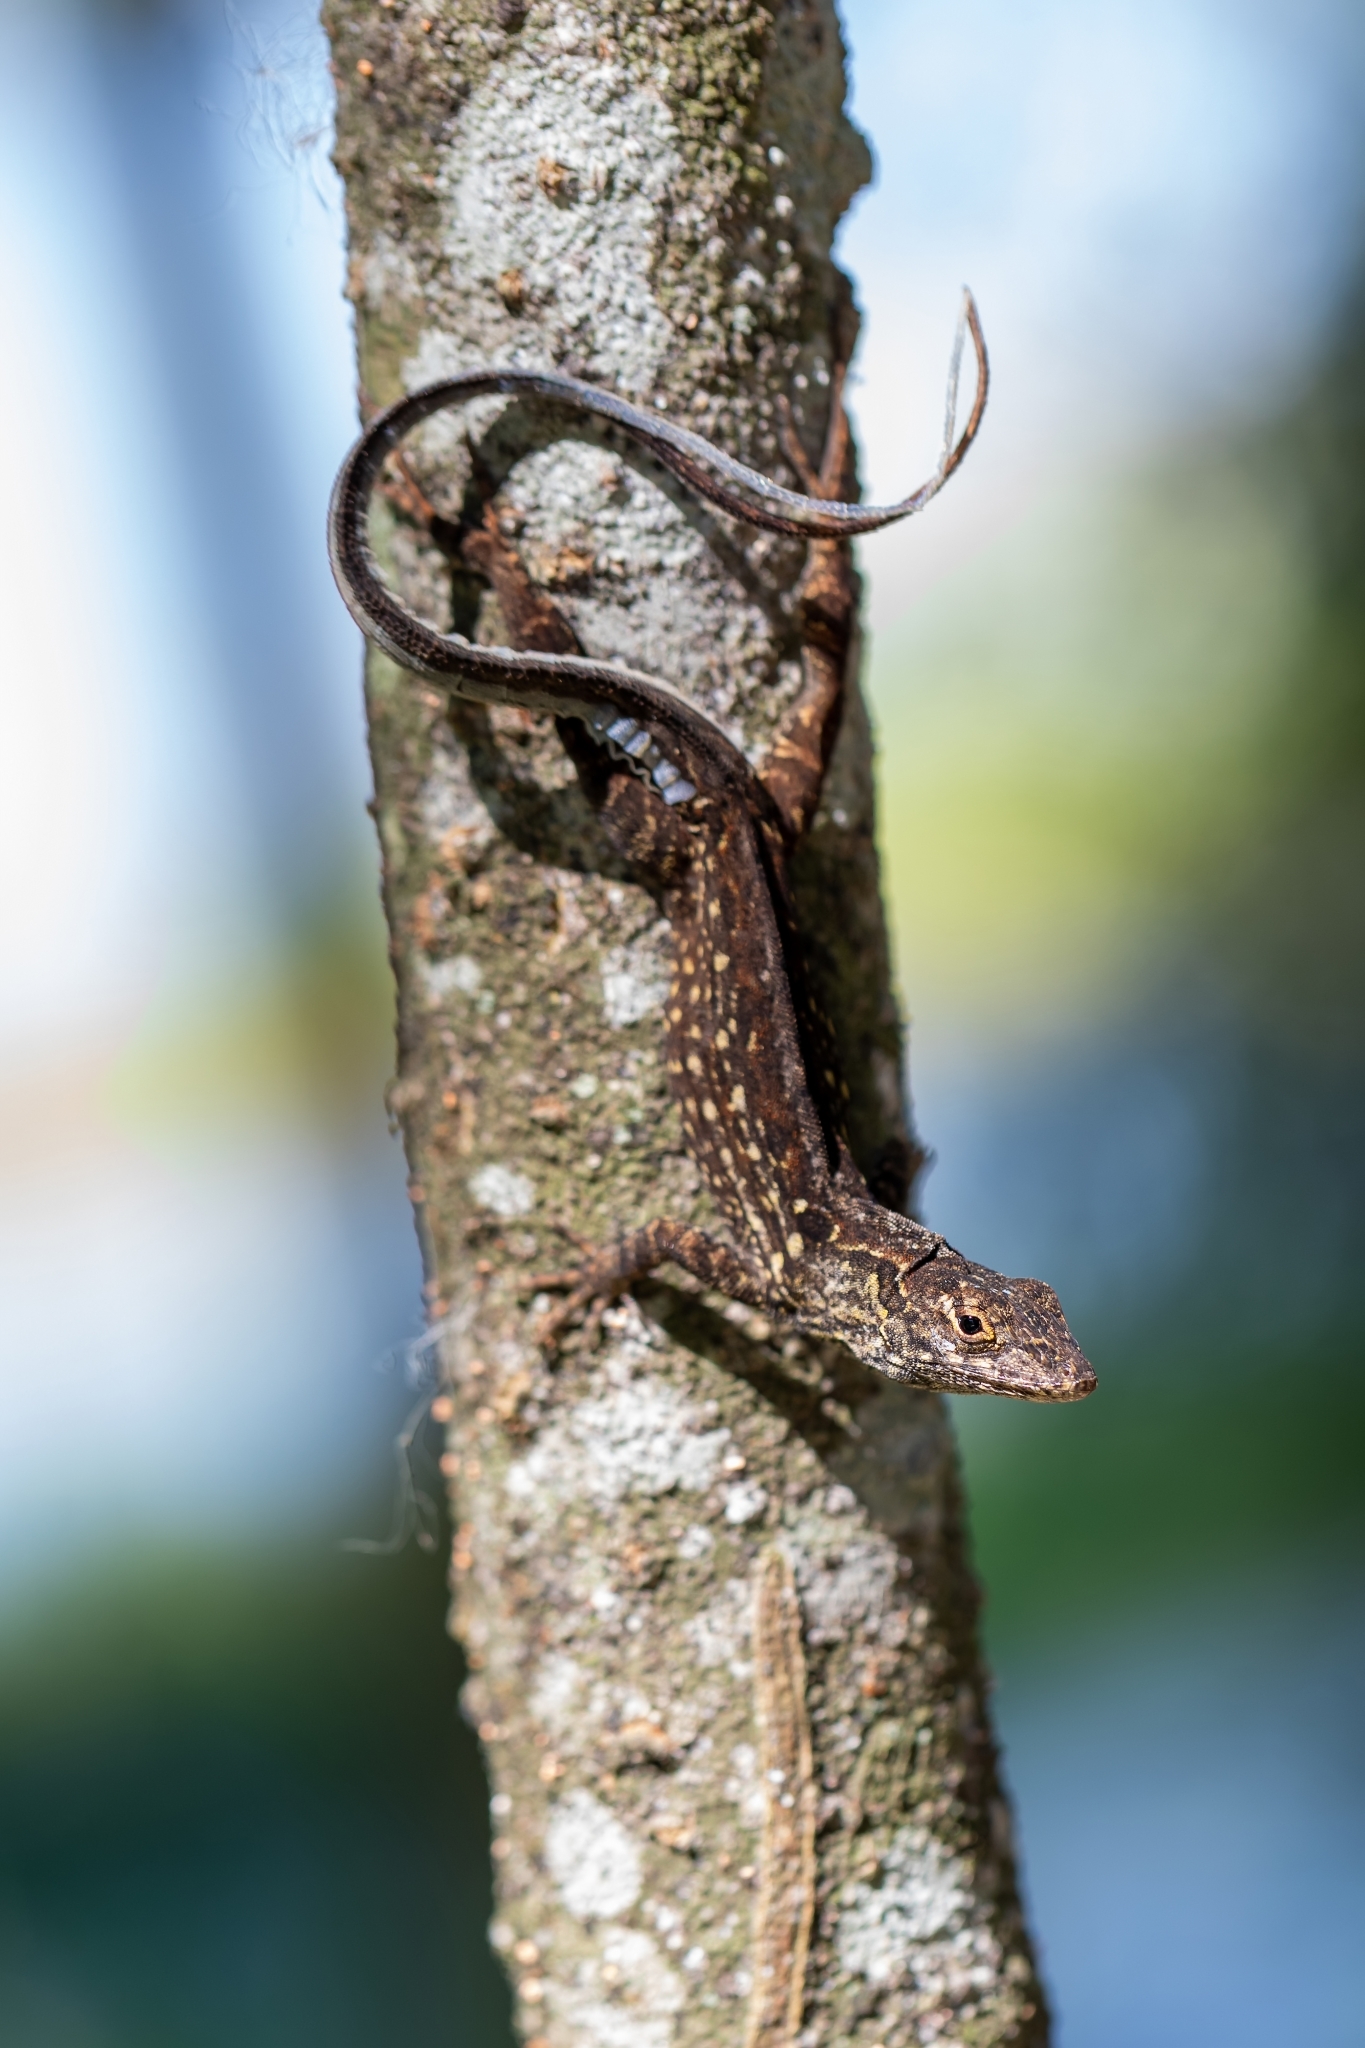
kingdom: Animalia
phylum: Chordata
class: Squamata
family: Dactyloidae
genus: Anolis
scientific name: Anolis sagrei
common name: Brown anole
